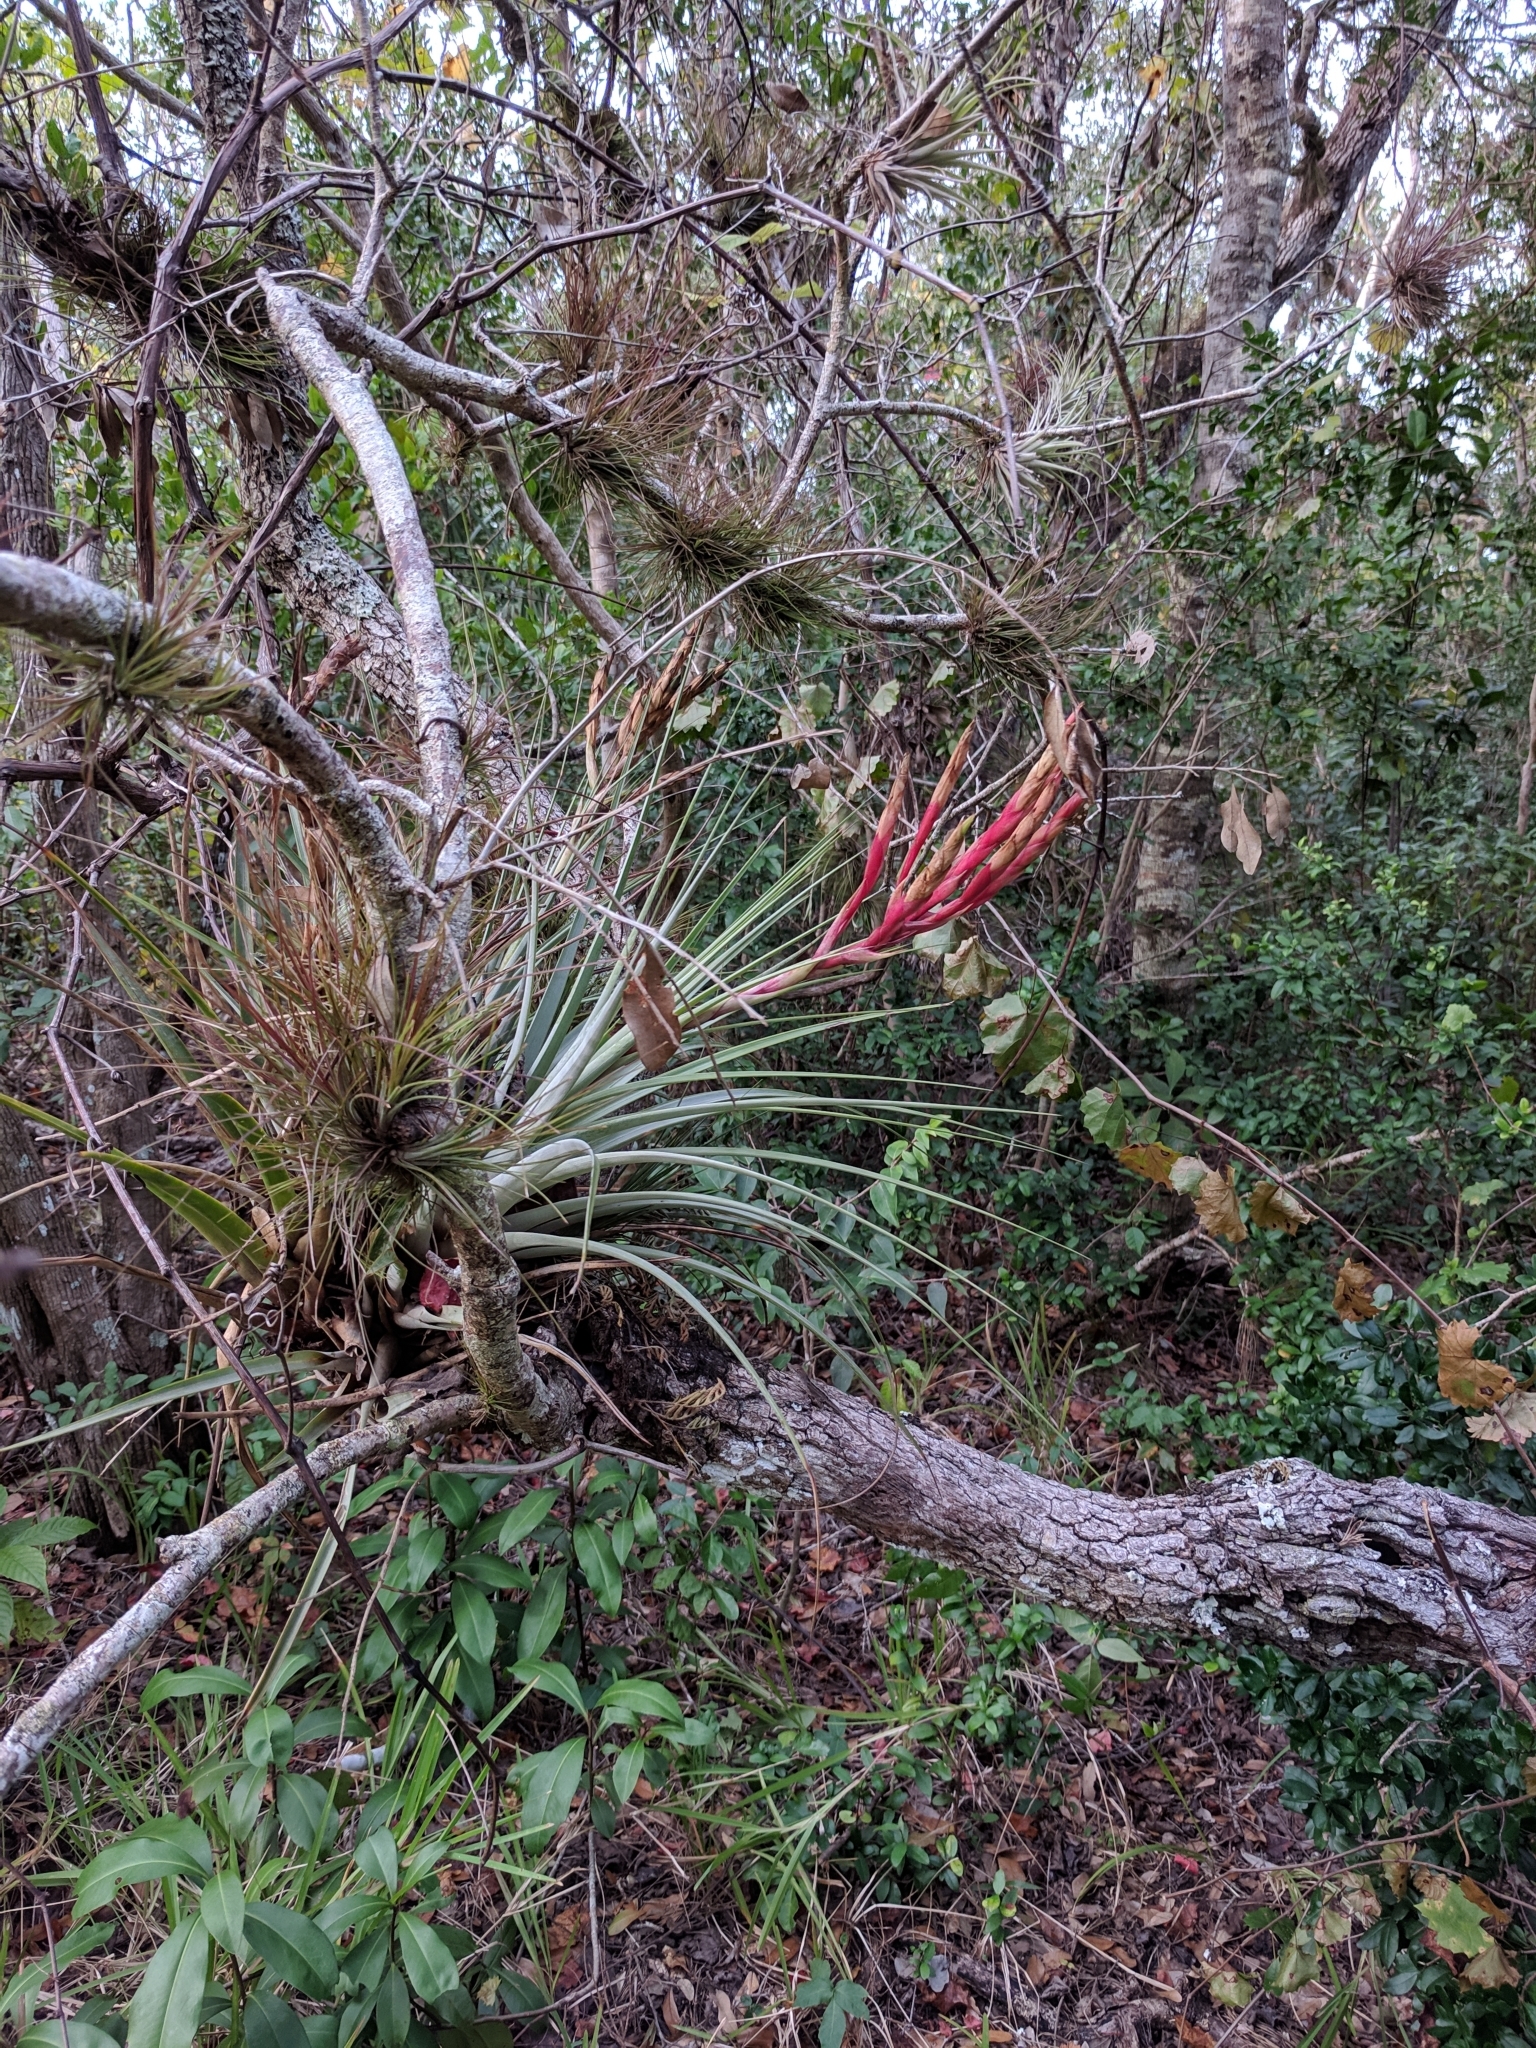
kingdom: Plantae
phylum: Tracheophyta
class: Liliopsida
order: Poales
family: Bromeliaceae
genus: Tillandsia
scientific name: Tillandsia fasciculata
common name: Giant airplant
